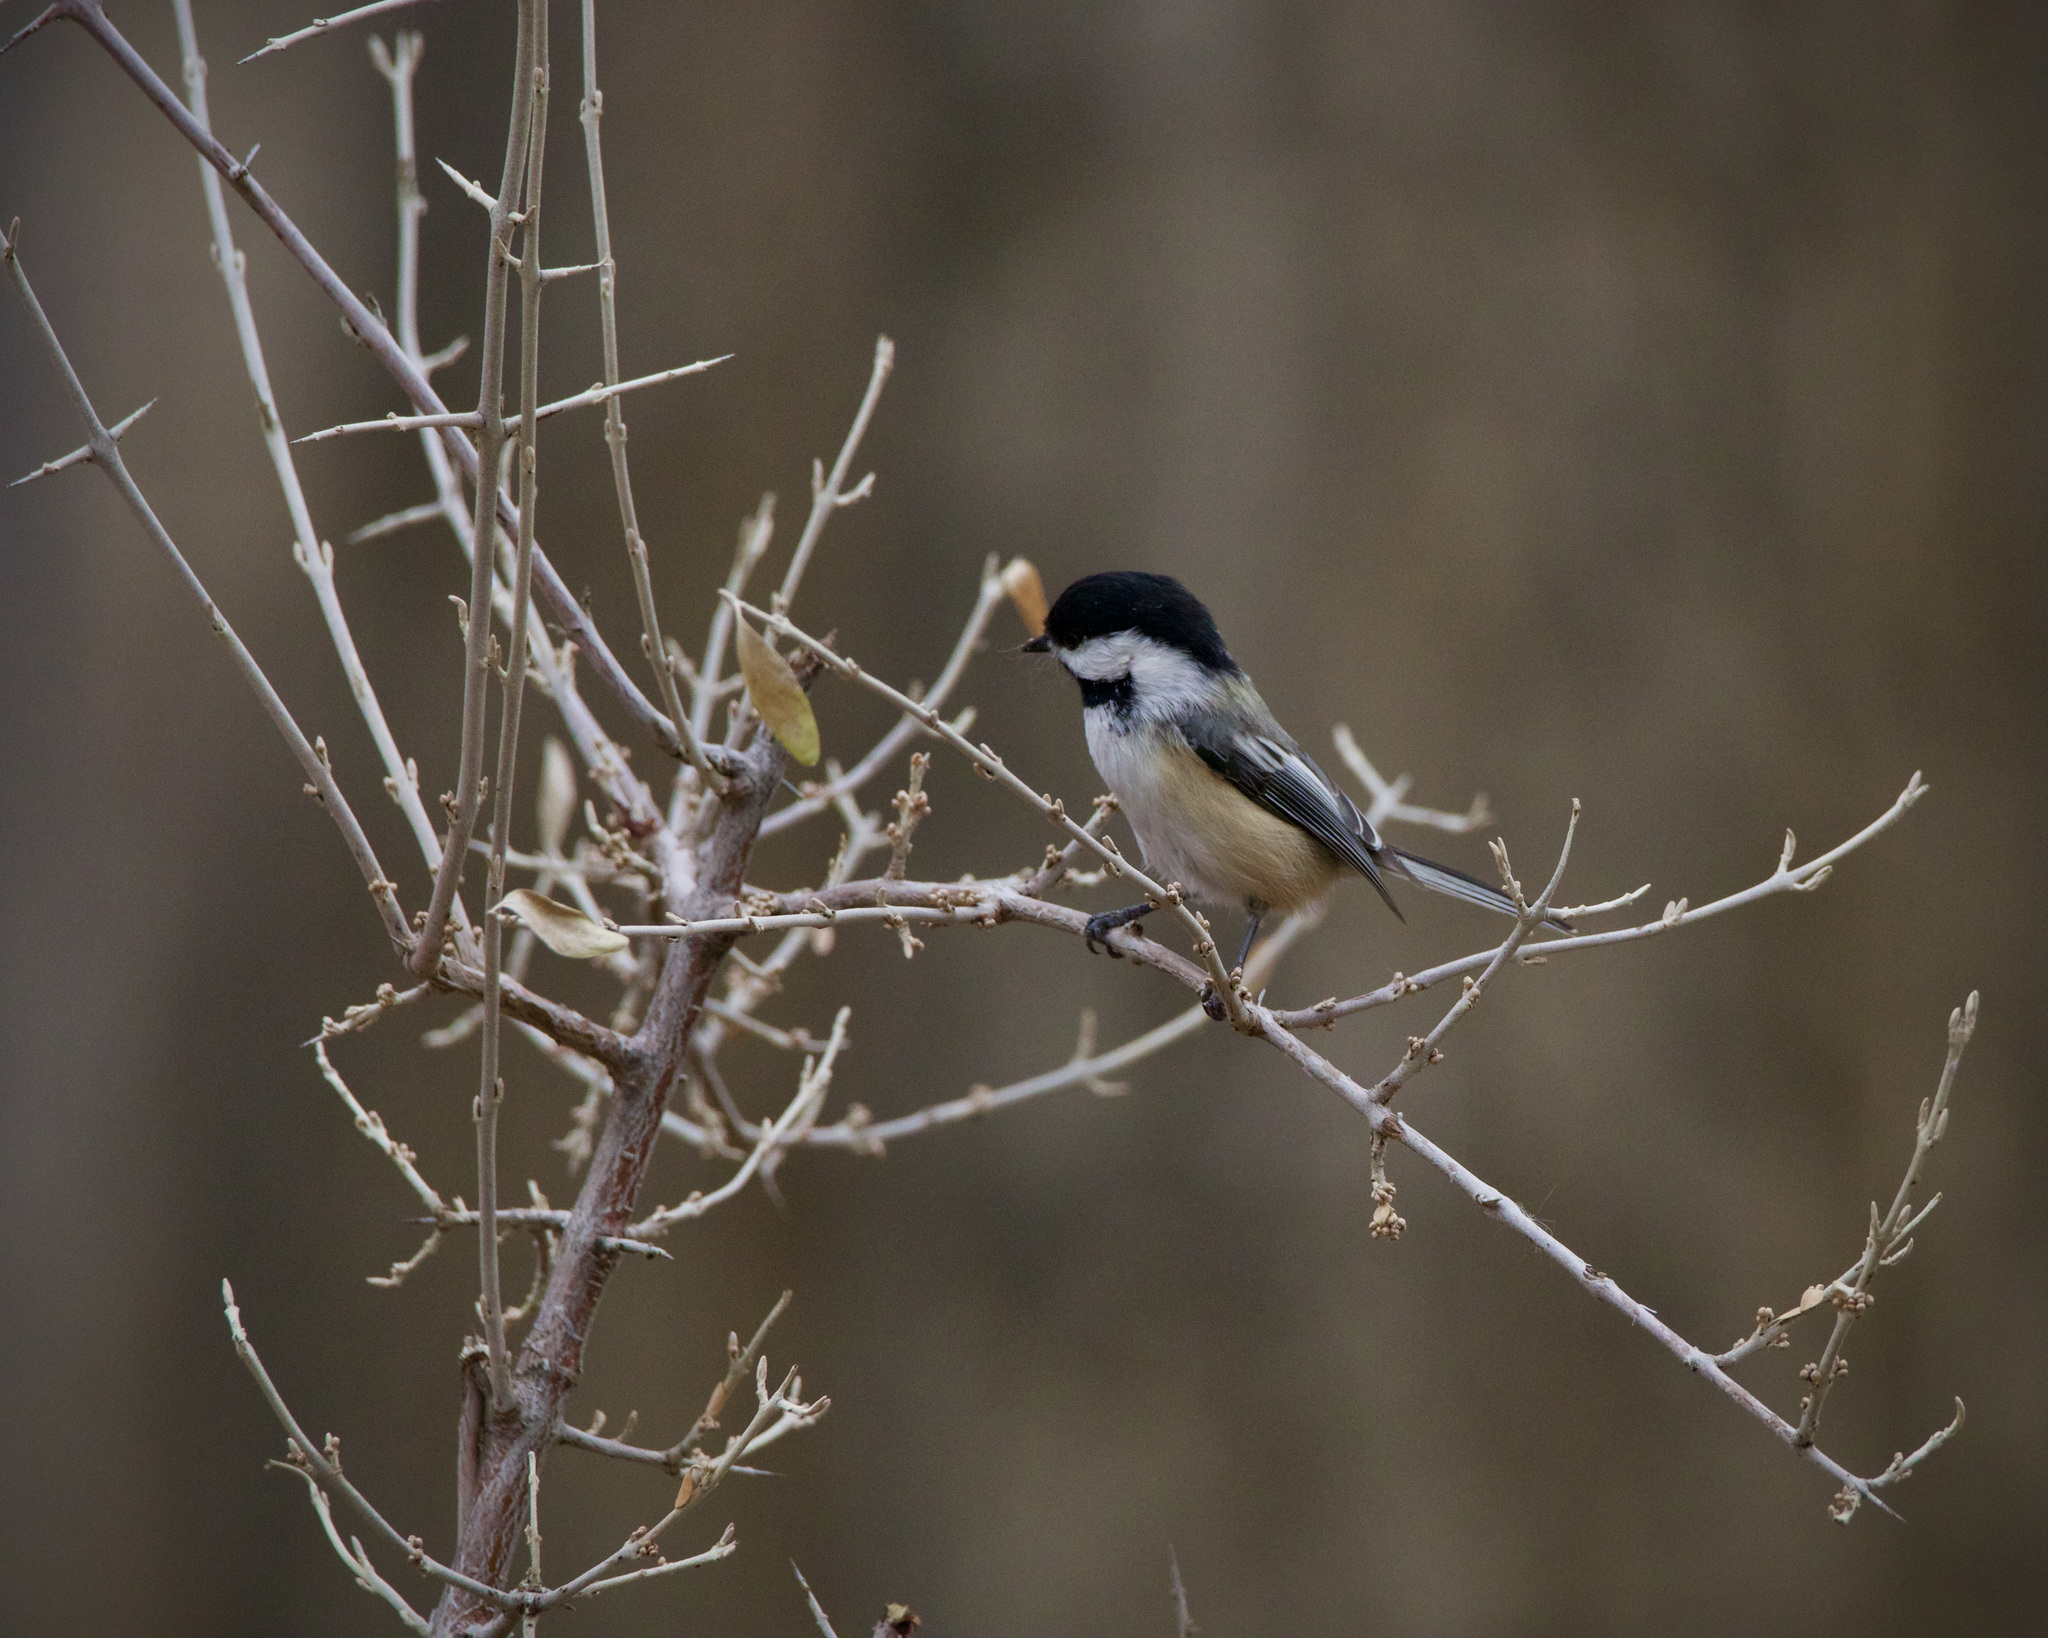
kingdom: Animalia
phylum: Chordata
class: Aves
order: Passeriformes
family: Paridae
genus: Poecile
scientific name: Poecile atricapillus
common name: Black-capped chickadee
